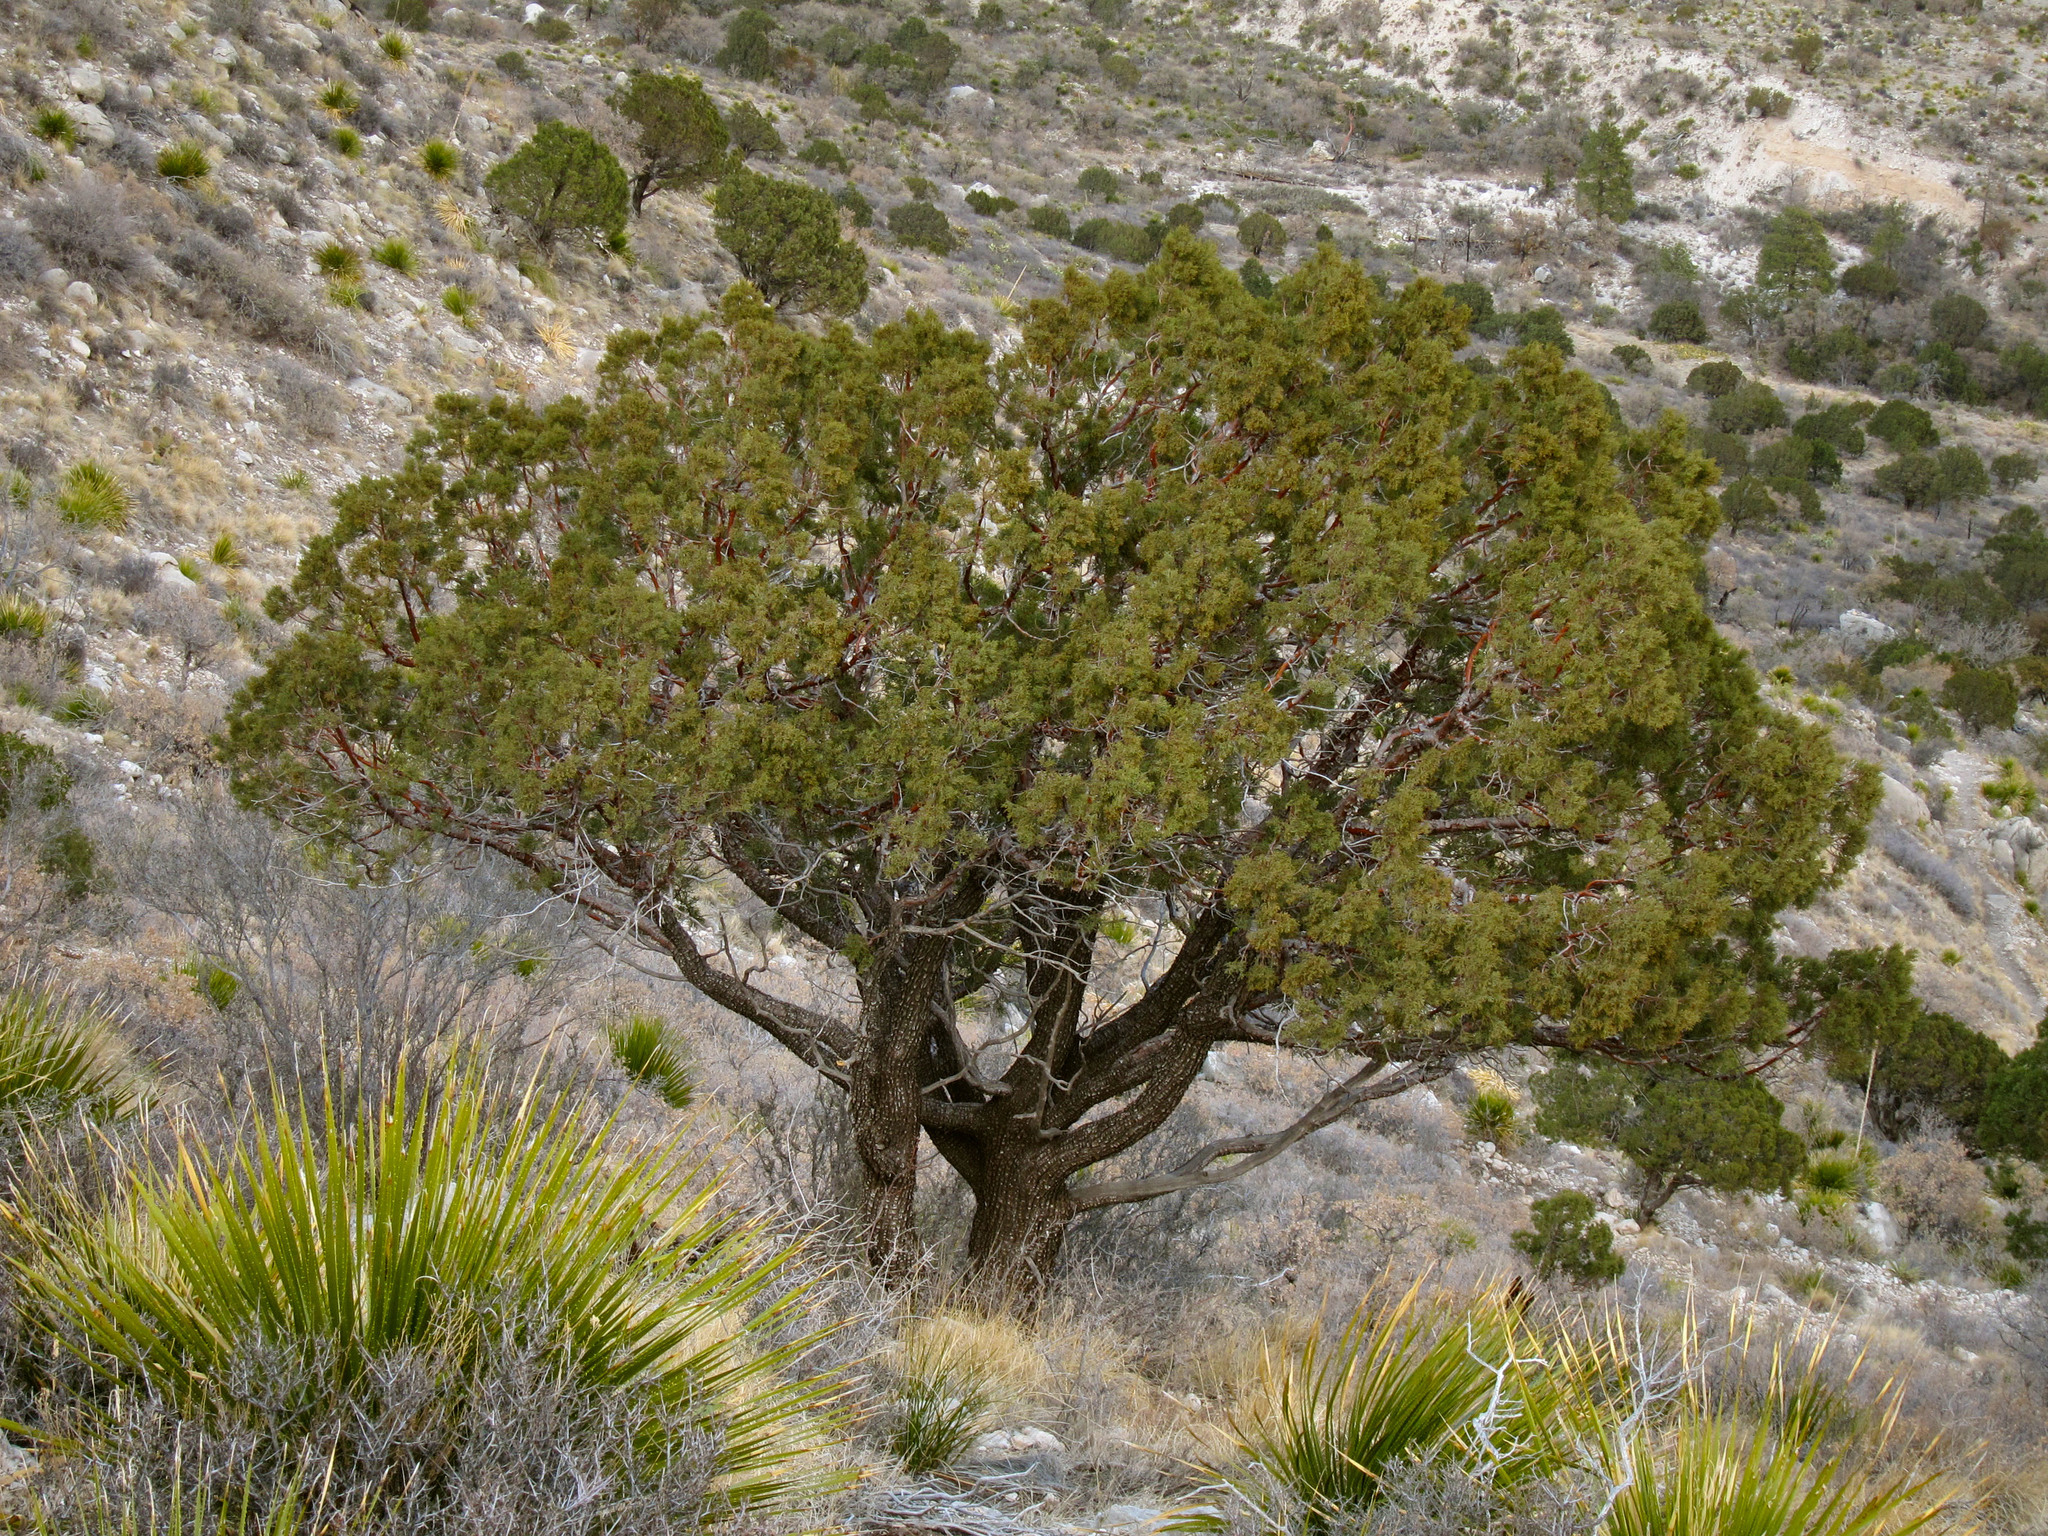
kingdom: Plantae
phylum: Tracheophyta
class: Pinopsida
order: Pinales
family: Cupressaceae
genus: Juniperus
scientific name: Juniperus deppeana
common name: Alligator juniper
